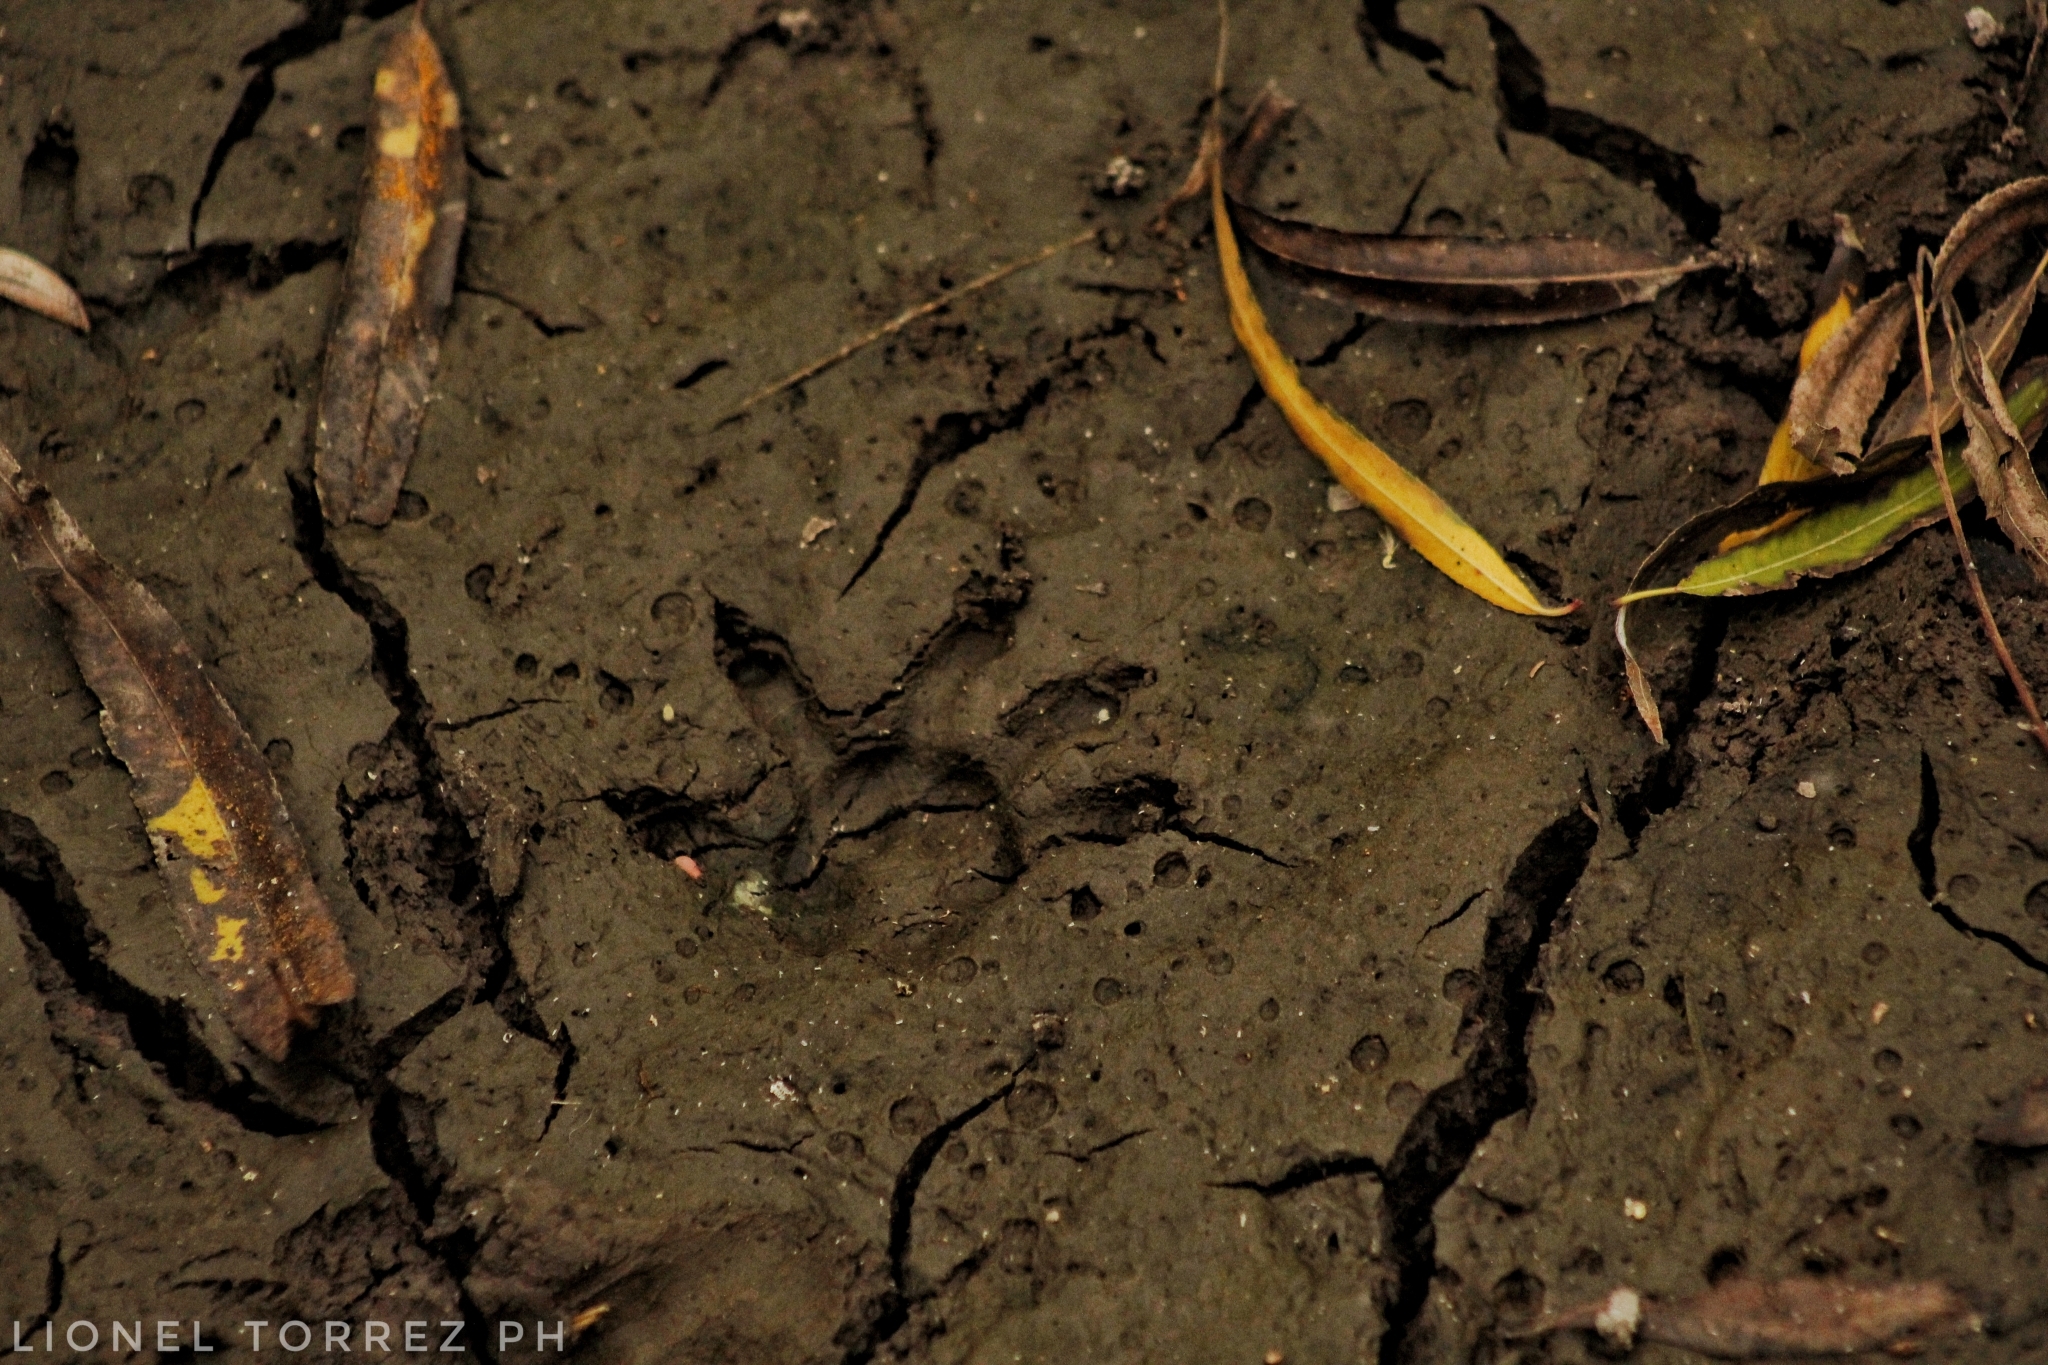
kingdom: Animalia
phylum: Chordata
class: Mammalia
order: Didelphimorphia
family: Didelphidae
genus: Didelphis
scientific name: Didelphis albiventris
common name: White-eared opossum
